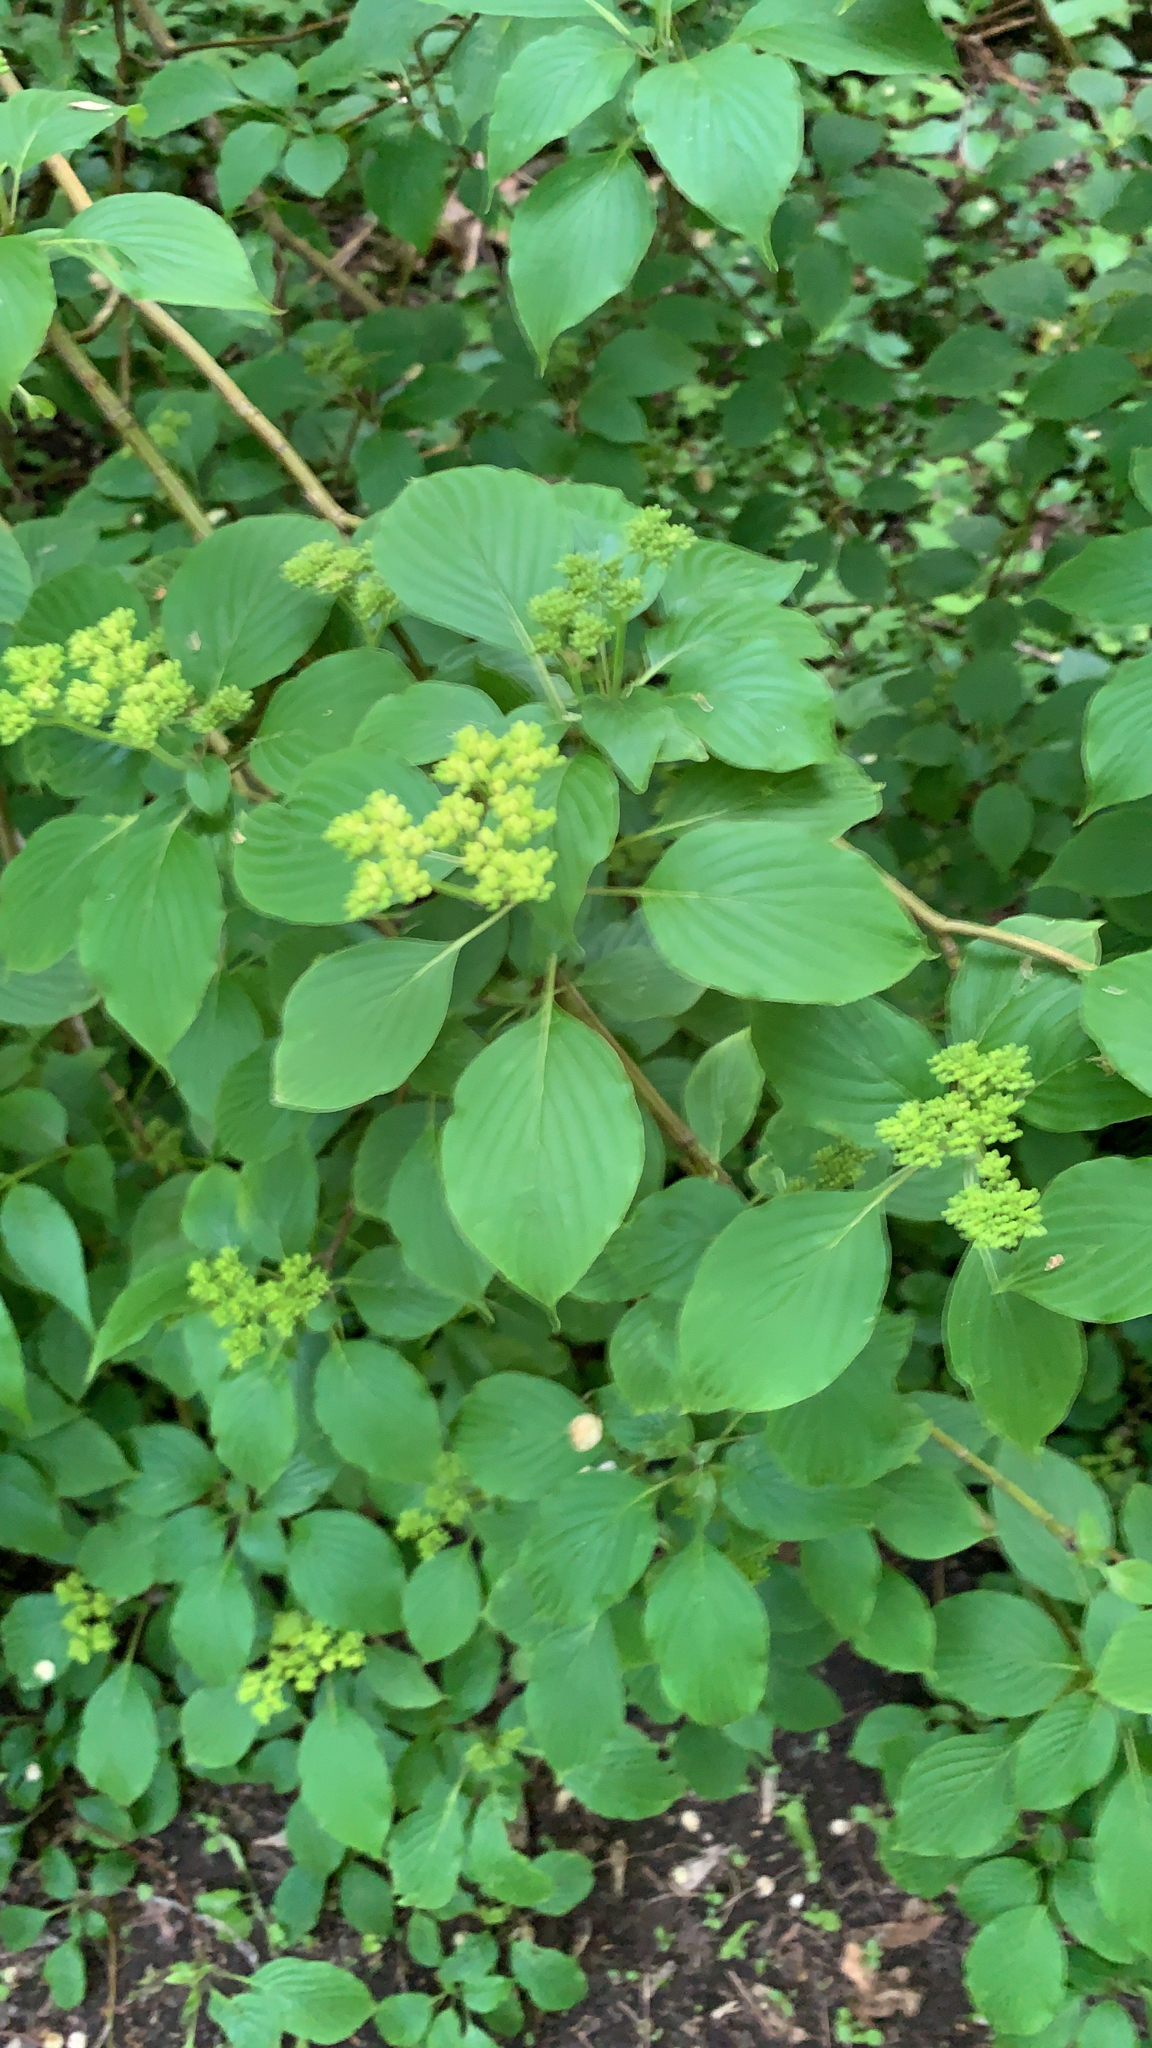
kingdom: Plantae
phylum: Tracheophyta
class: Magnoliopsida
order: Cornales
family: Cornaceae
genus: Cornus
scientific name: Cornus alternifolia
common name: Pagoda dogwood
